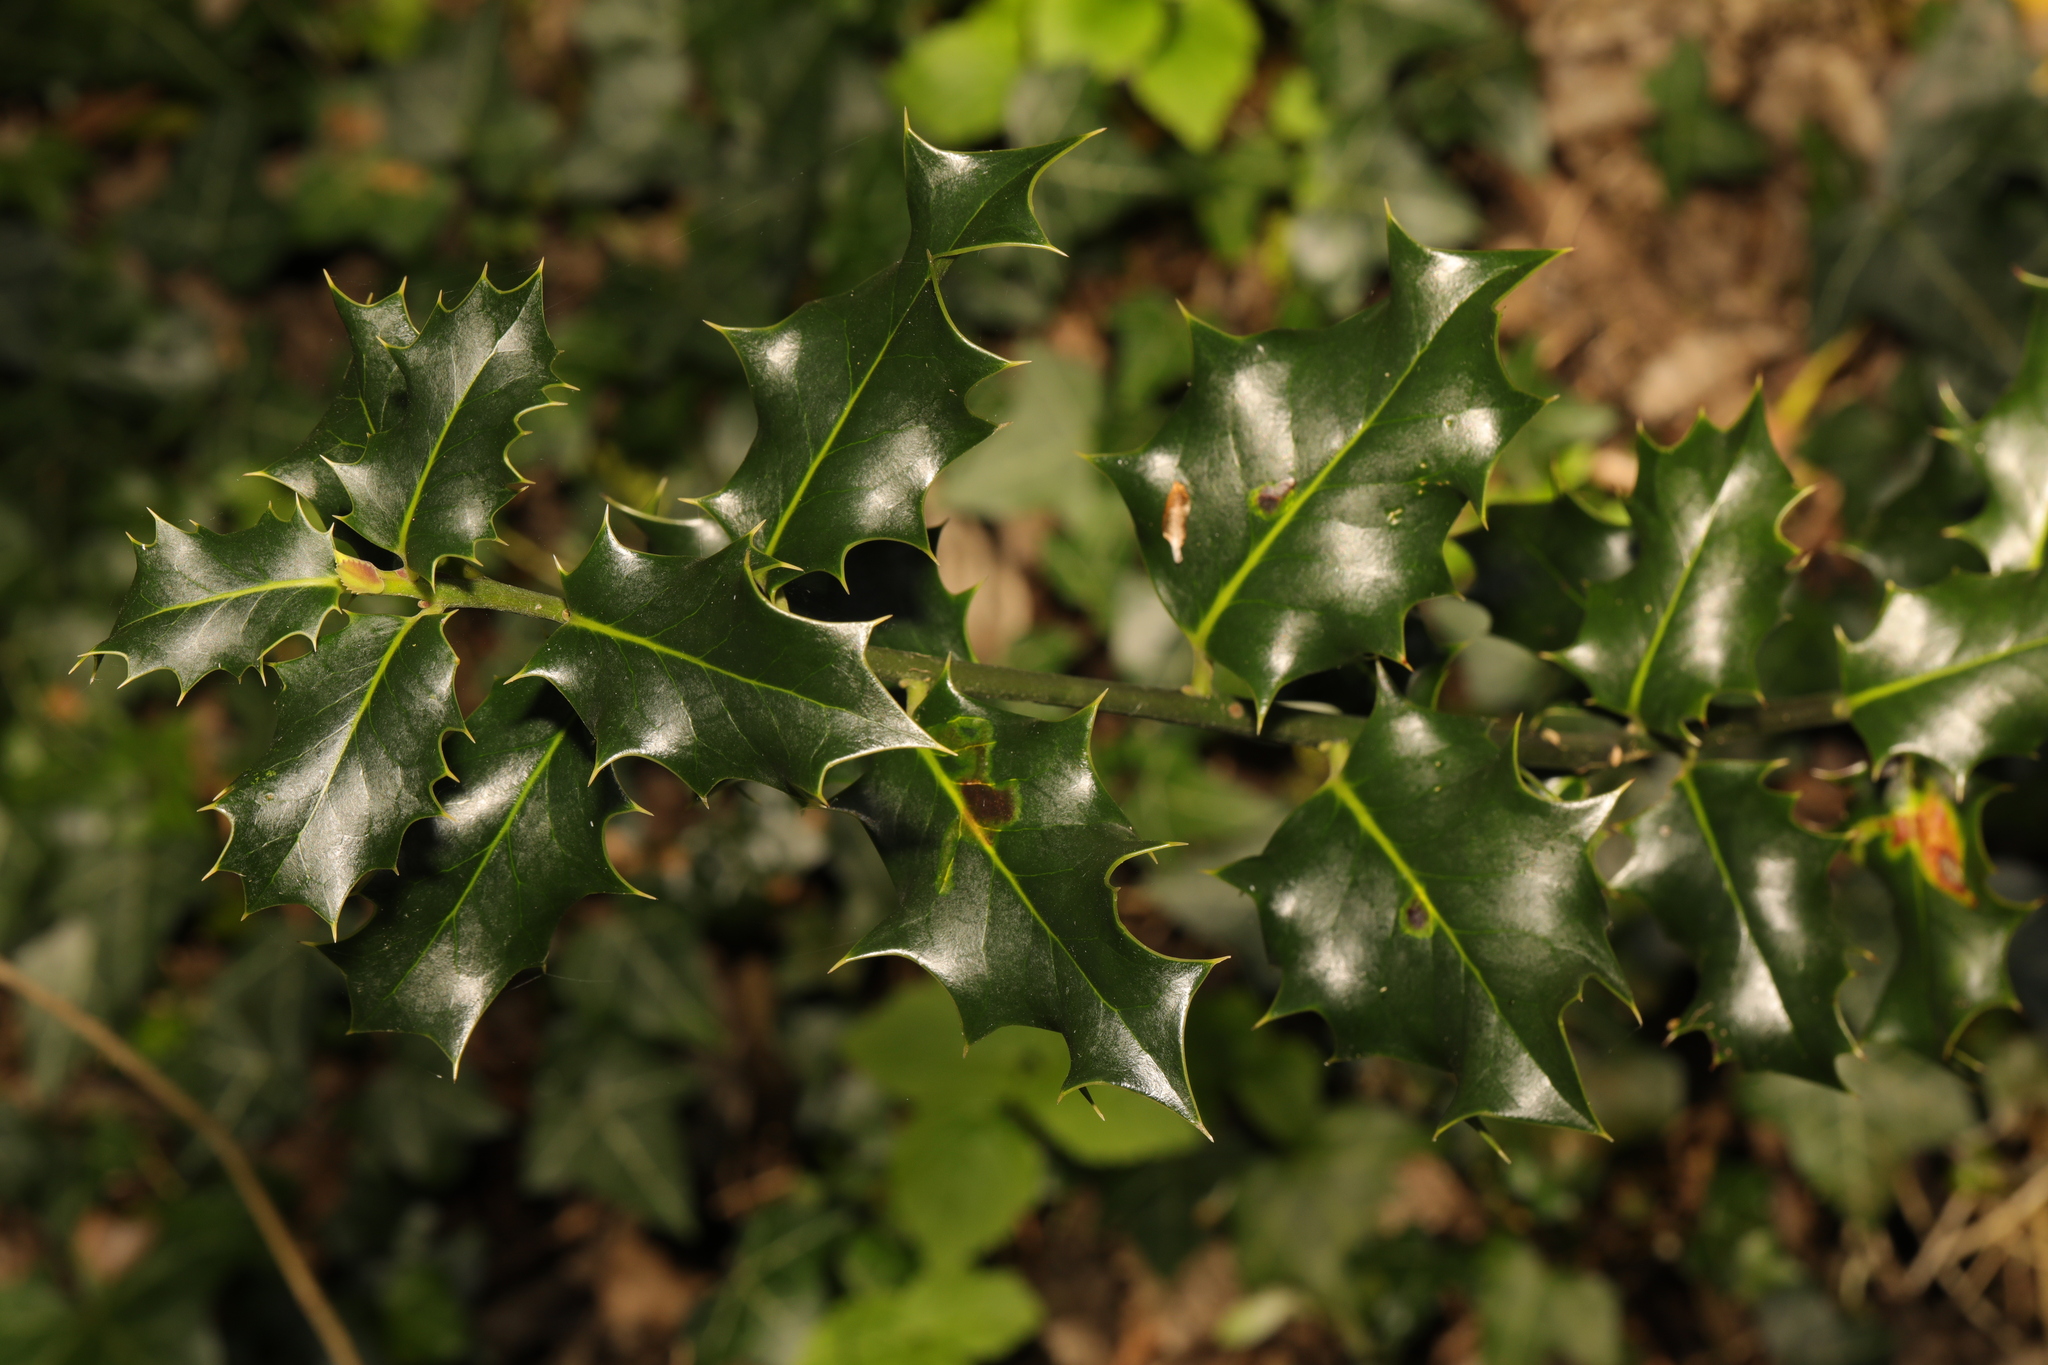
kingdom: Plantae
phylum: Tracheophyta
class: Magnoliopsida
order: Aquifoliales
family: Aquifoliaceae
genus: Ilex
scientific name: Ilex aquifolium
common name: English holly
